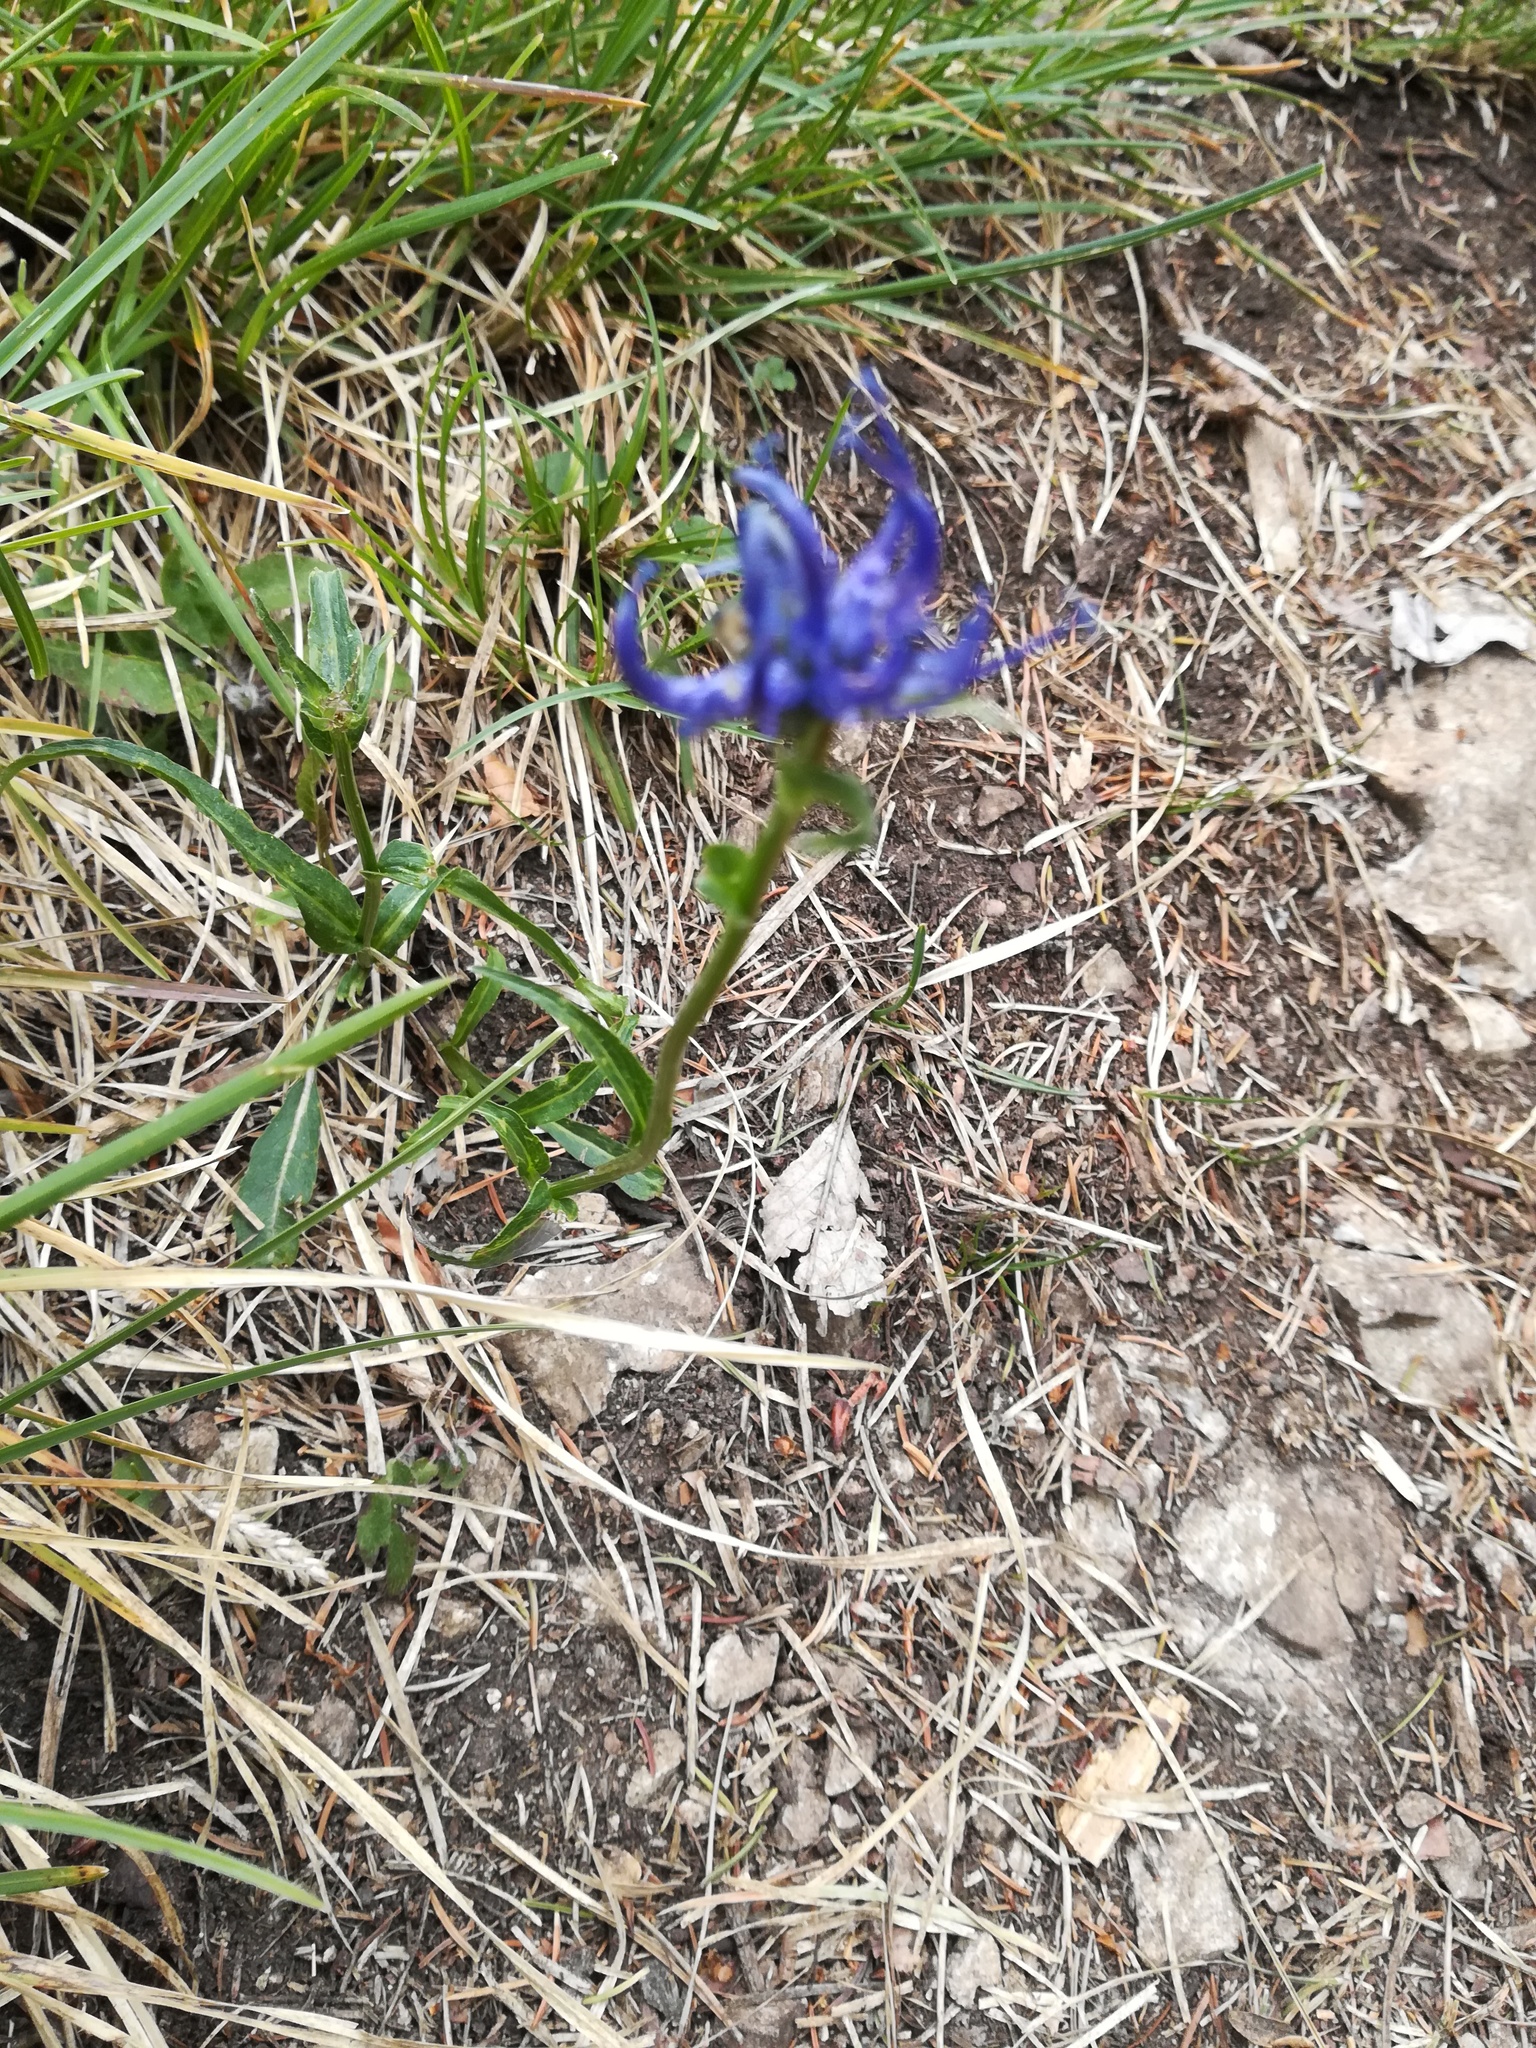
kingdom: Plantae
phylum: Tracheophyta
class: Magnoliopsida
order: Asterales
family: Campanulaceae
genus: Phyteuma
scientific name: Phyteuma orbiculare
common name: Round-headed rampion
